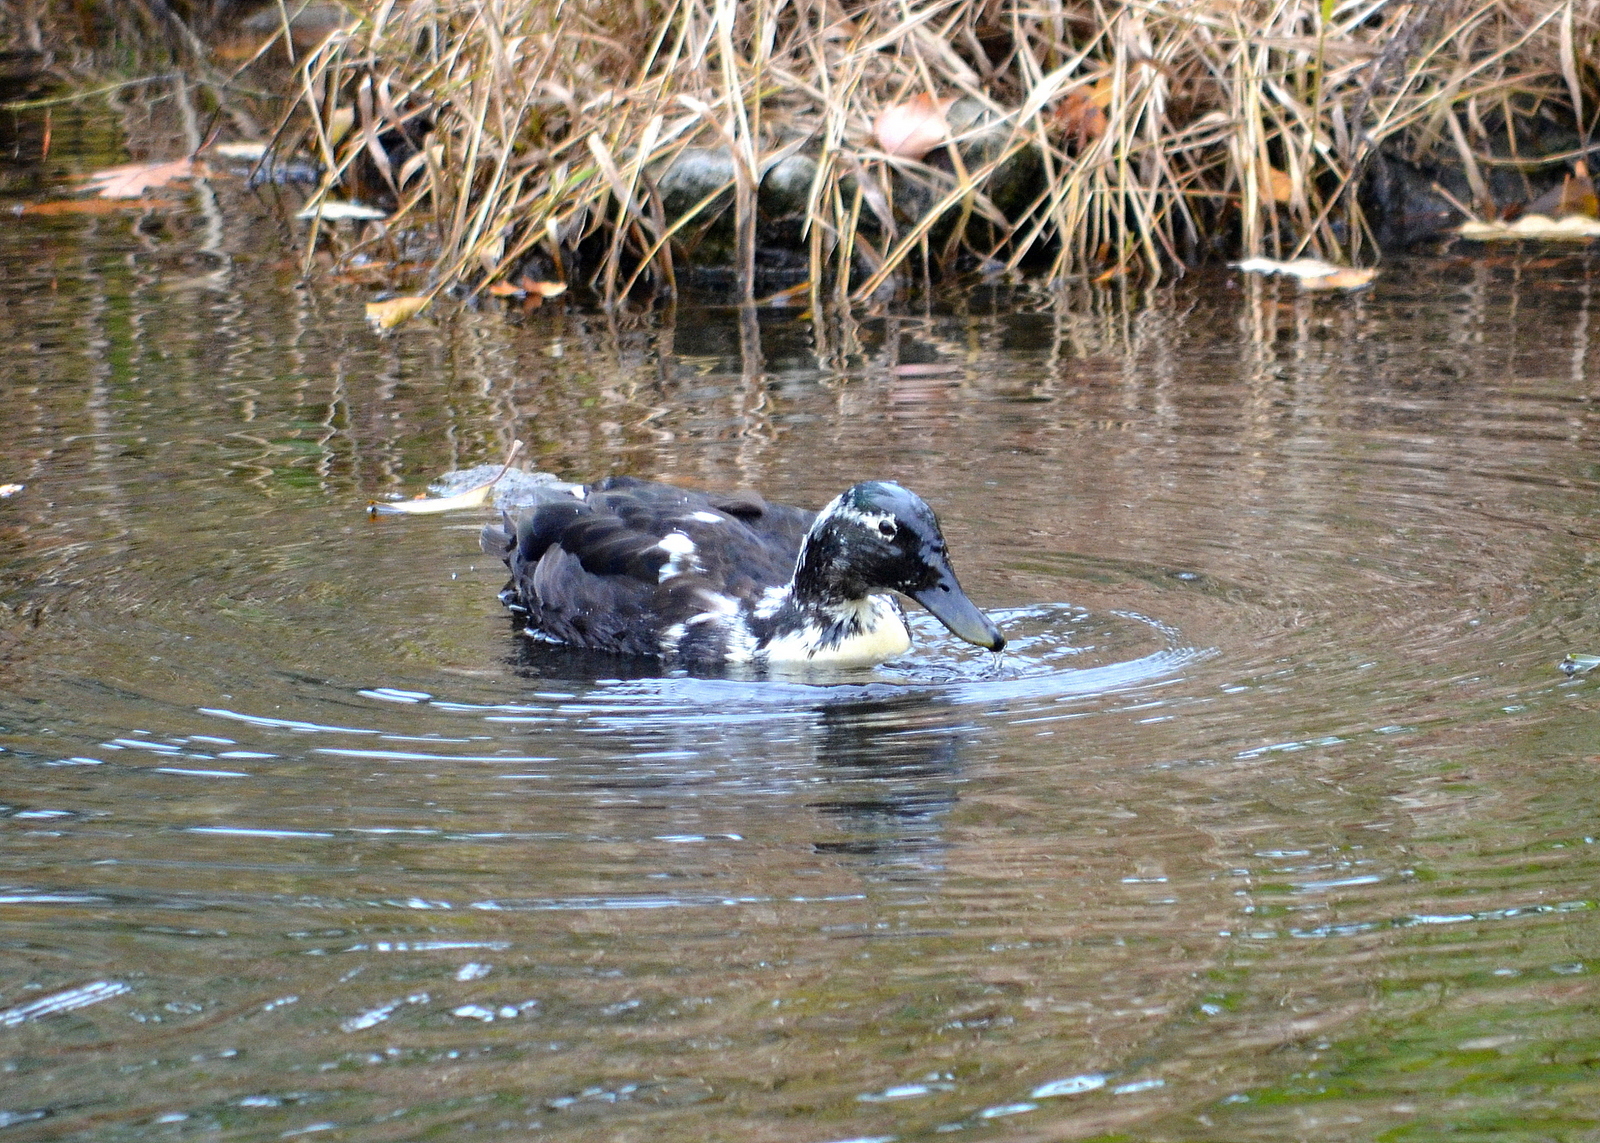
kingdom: Animalia
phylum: Chordata
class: Aves
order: Anseriformes
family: Anatidae
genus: Anas
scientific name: Anas platyrhynchos
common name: Mallard
